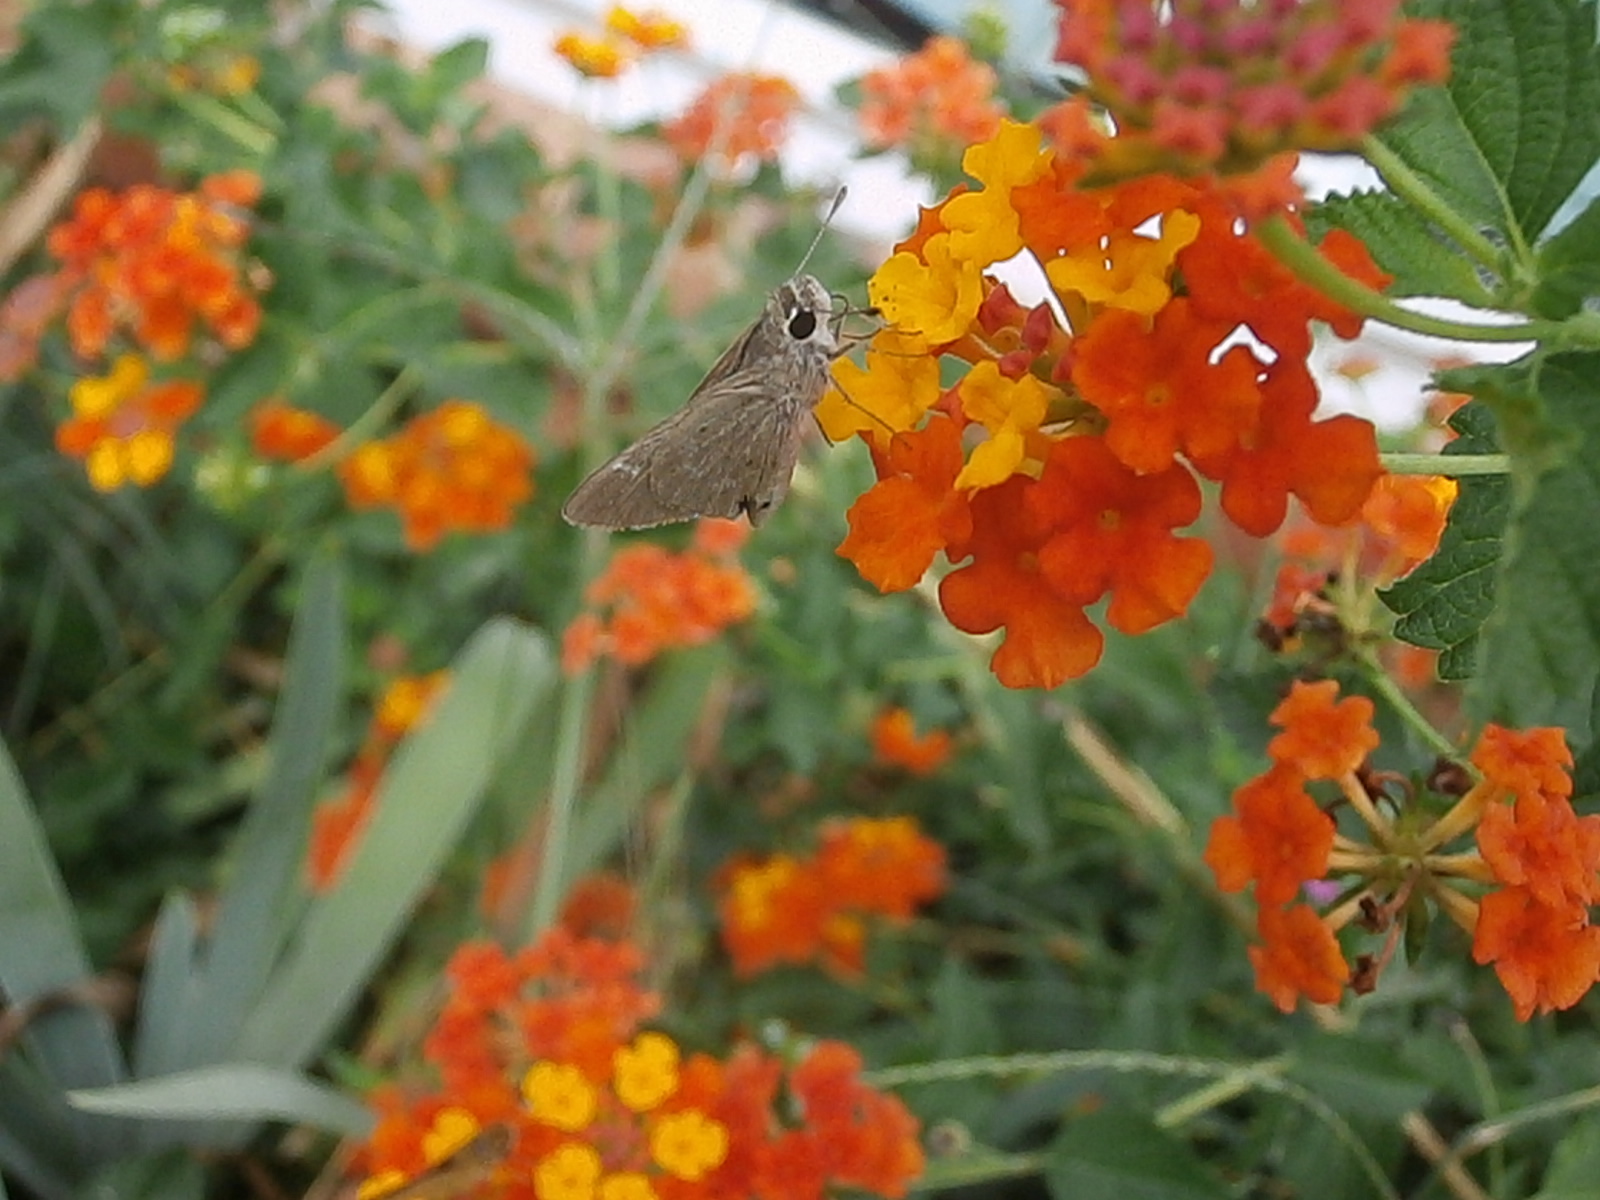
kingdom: Animalia
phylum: Arthropoda
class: Insecta
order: Lepidoptera
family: Hesperiidae
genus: Lerodea
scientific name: Lerodea eufala
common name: Eufala skipper
